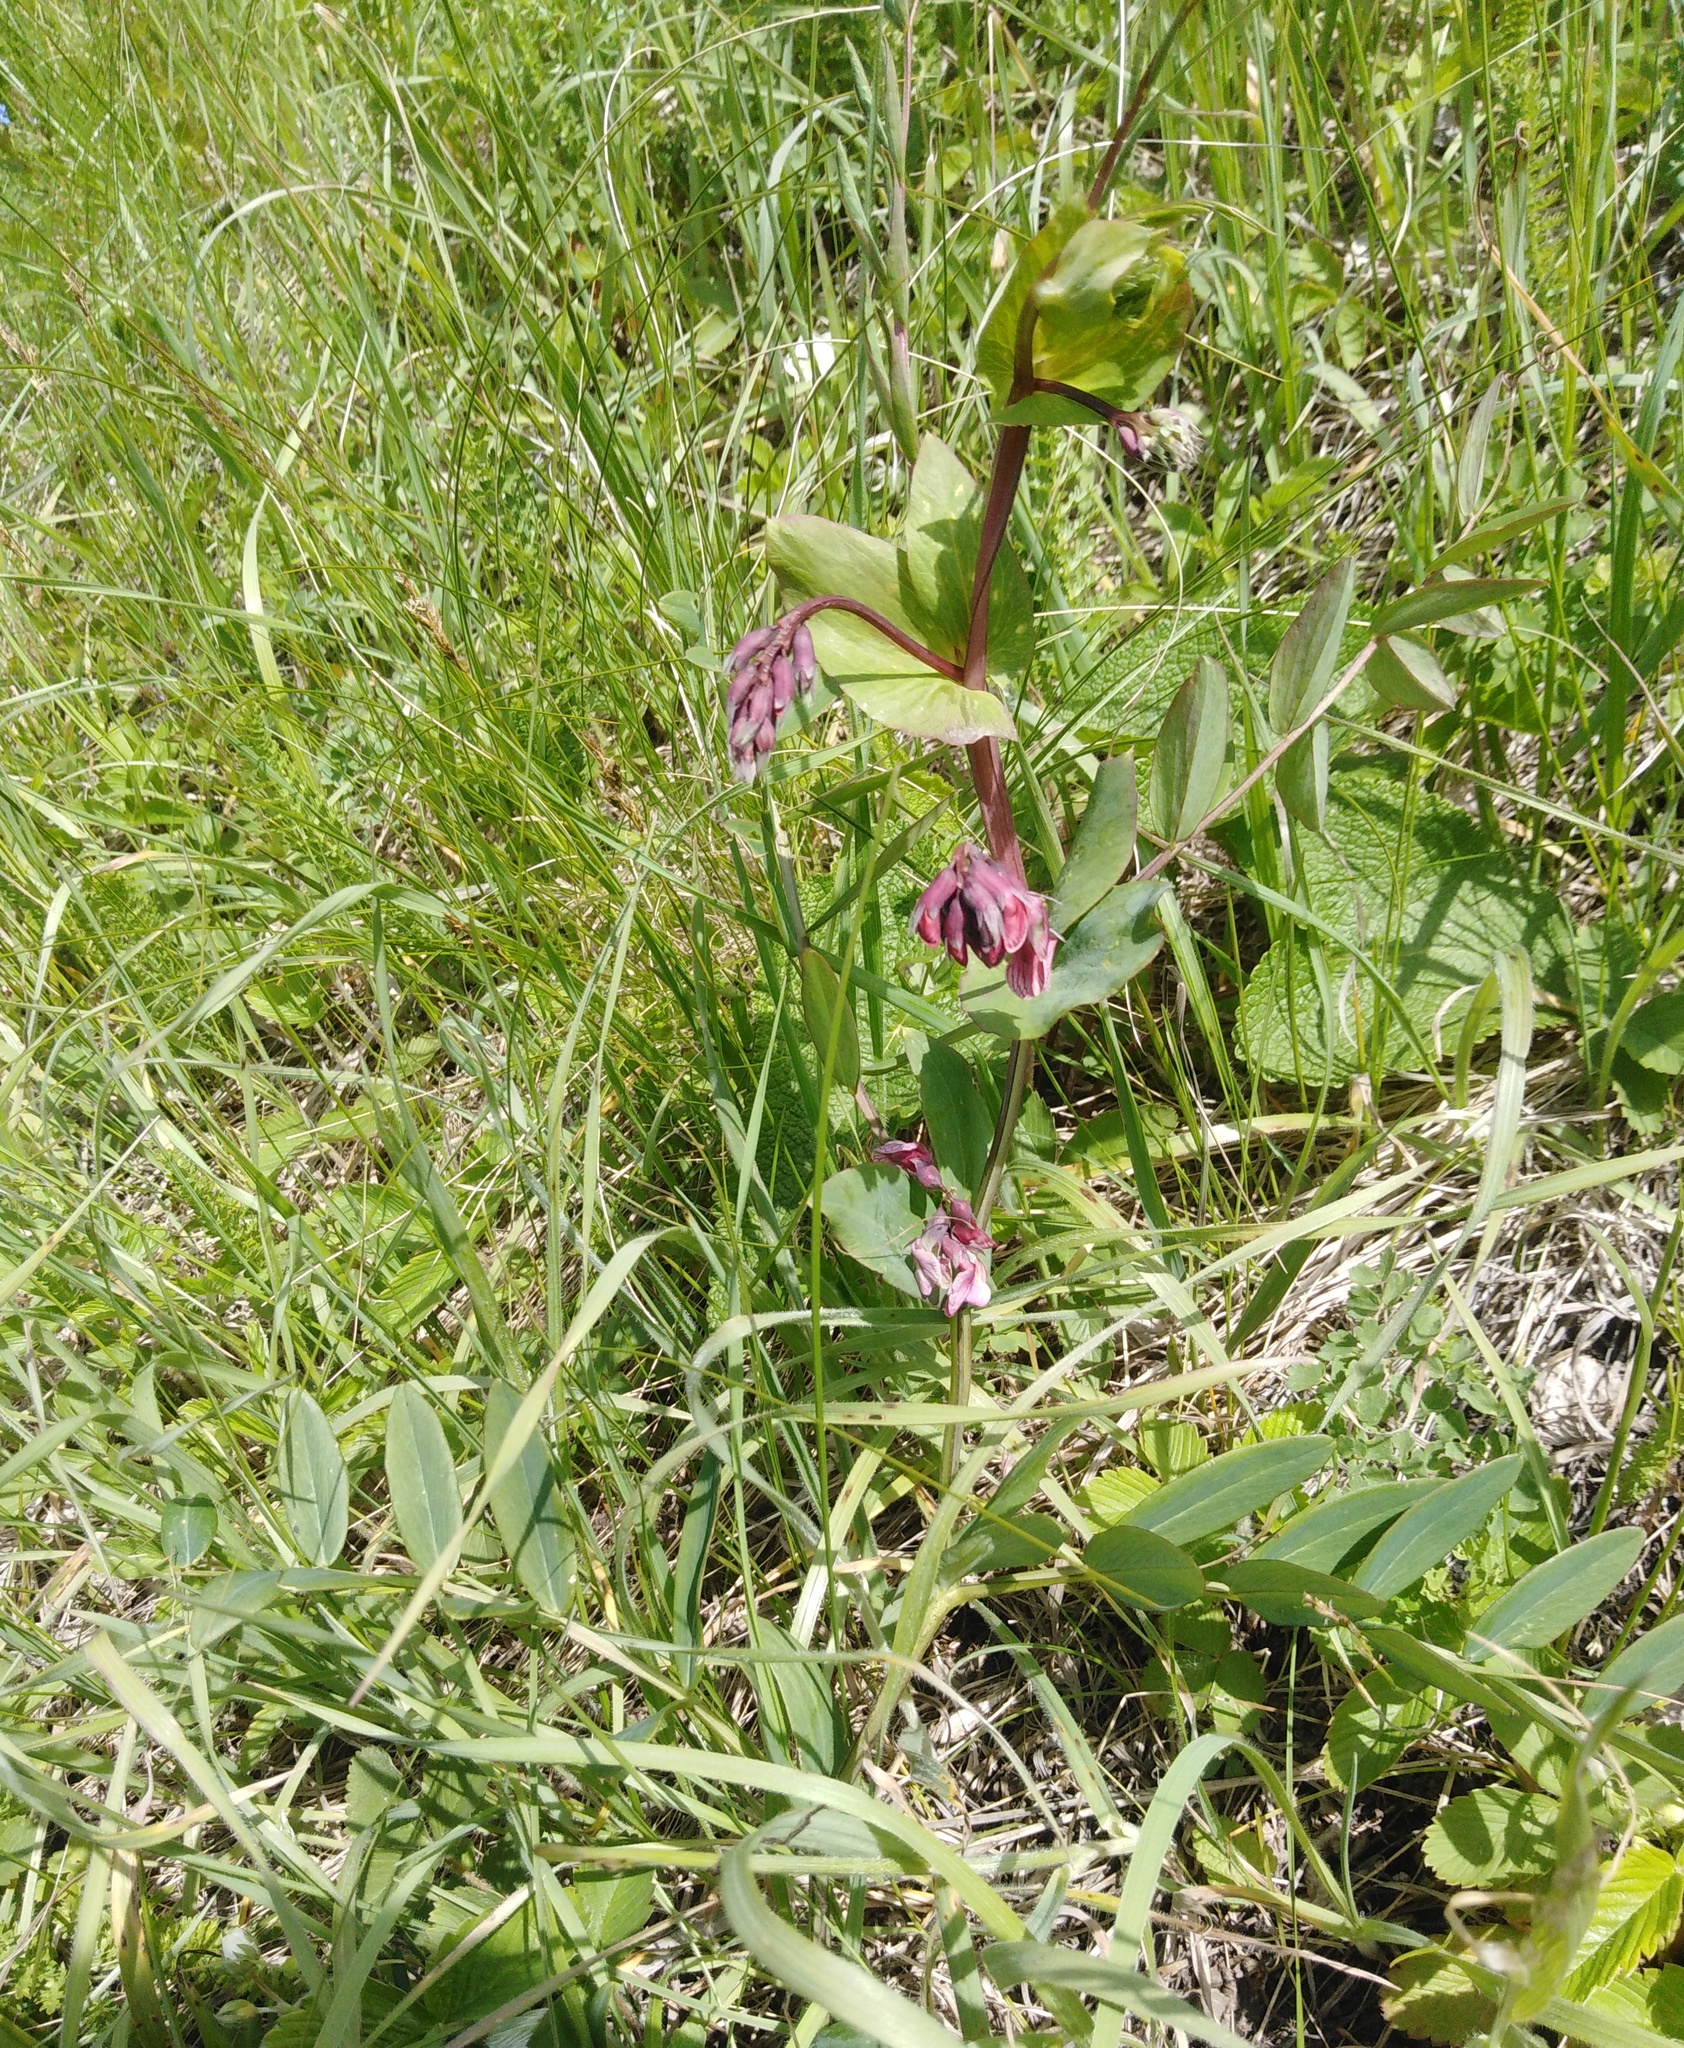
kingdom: Plantae
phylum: Tracheophyta
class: Magnoliopsida
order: Fabales
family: Fabaceae
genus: Lathyrus
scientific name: Lathyrus pisiformis
